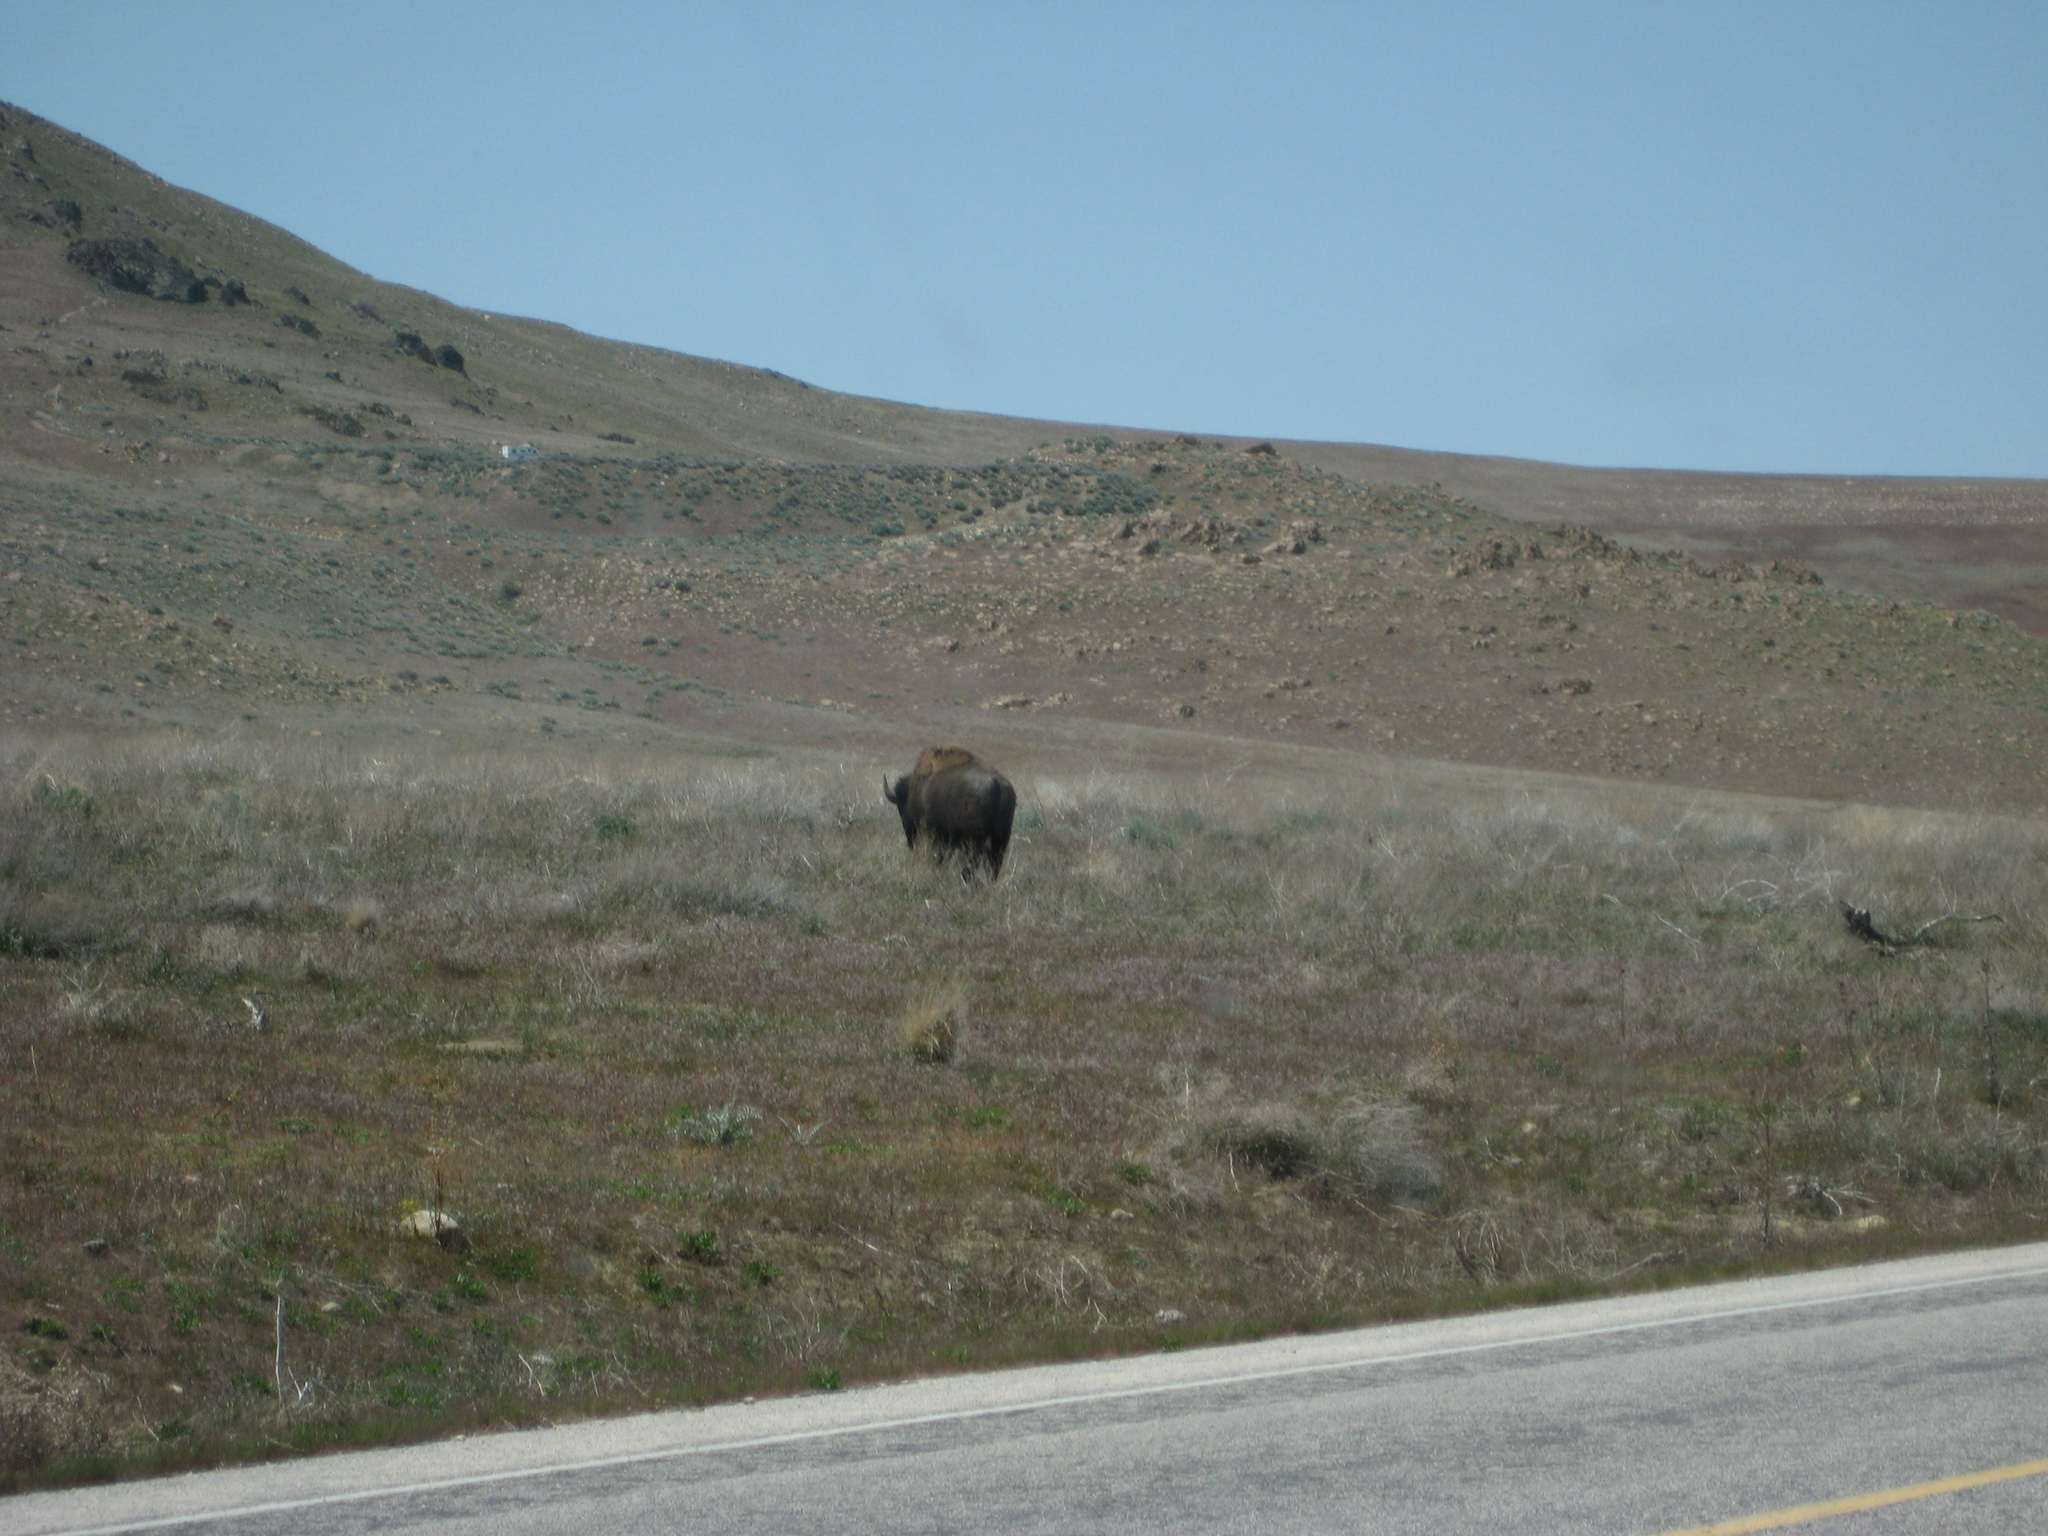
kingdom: Animalia
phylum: Chordata
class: Mammalia
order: Artiodactyla
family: Bovidae
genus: Bison
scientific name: Bison bison
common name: American bison
